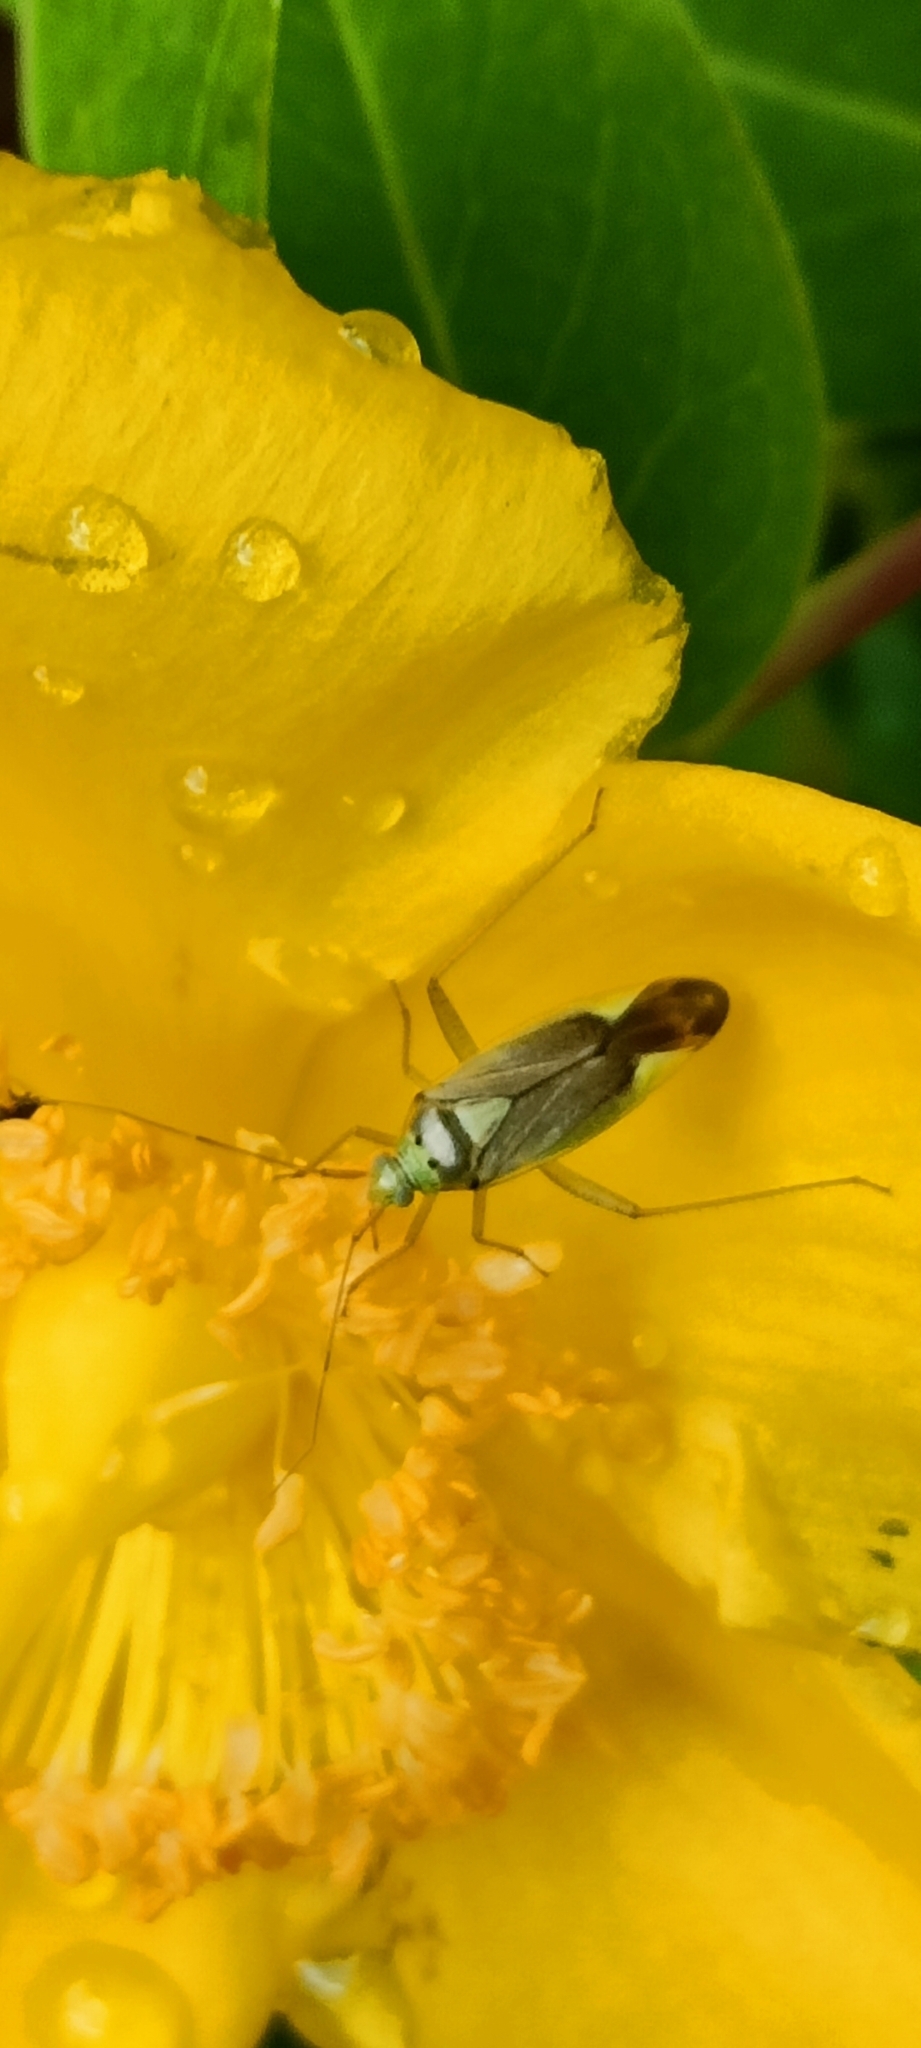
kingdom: Animalia
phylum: Arthropoda
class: Insecta
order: Hemiptera
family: Miridae
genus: Closterotomus
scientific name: Closterotomus trivialis
